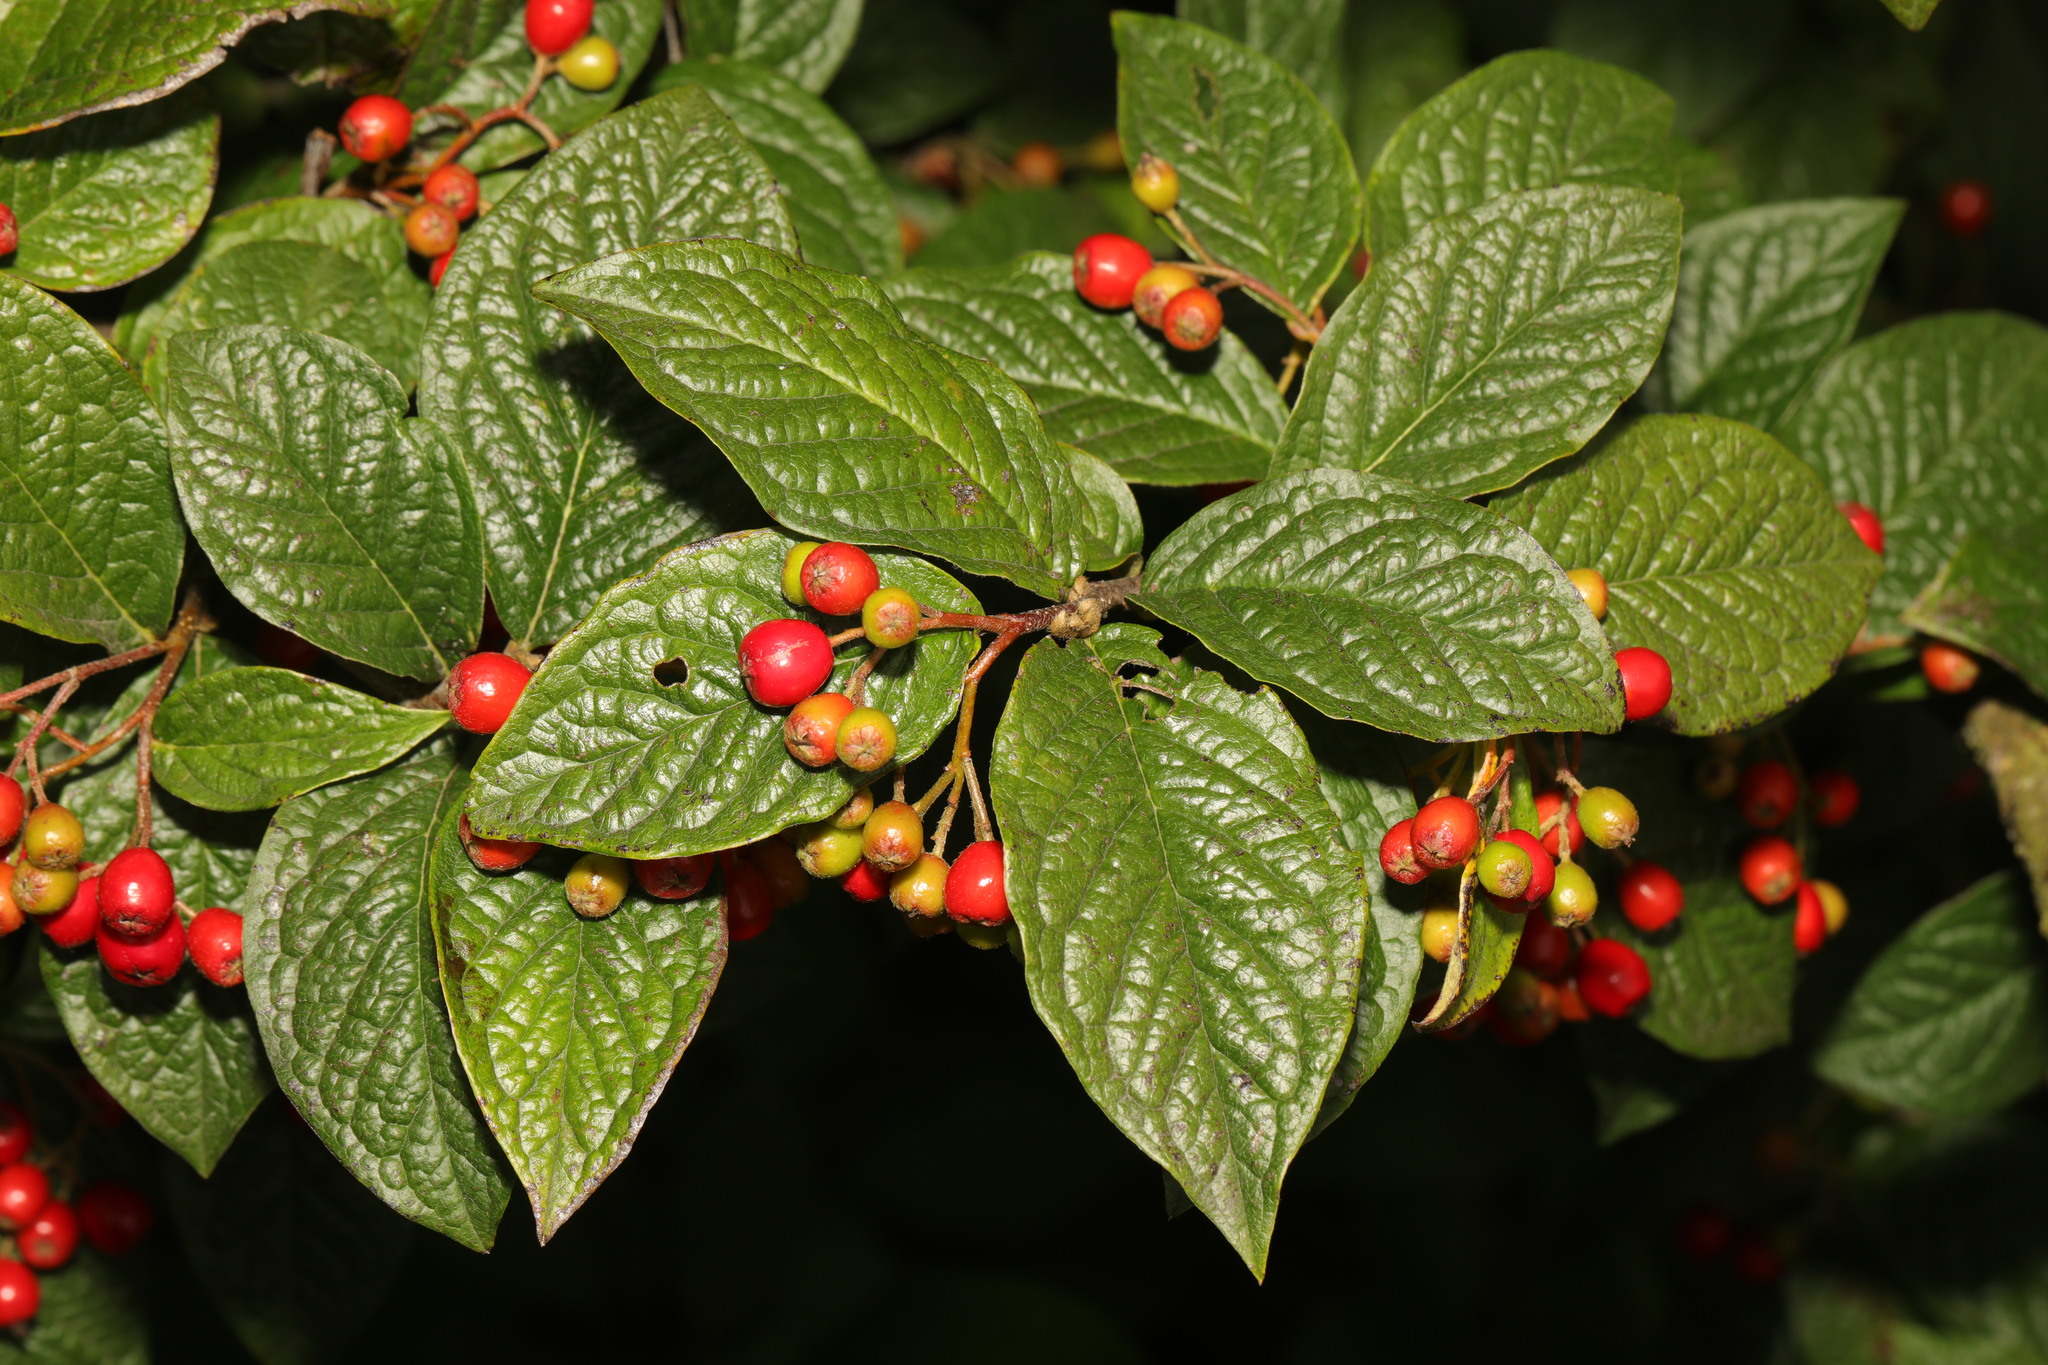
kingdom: Plantae
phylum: Tracheophyta
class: Magnoliopsida
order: Rosales
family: Rosaceae
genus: Cotoneaster
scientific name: Cotoneaster bullatus
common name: Hollyberry cotoneaster
